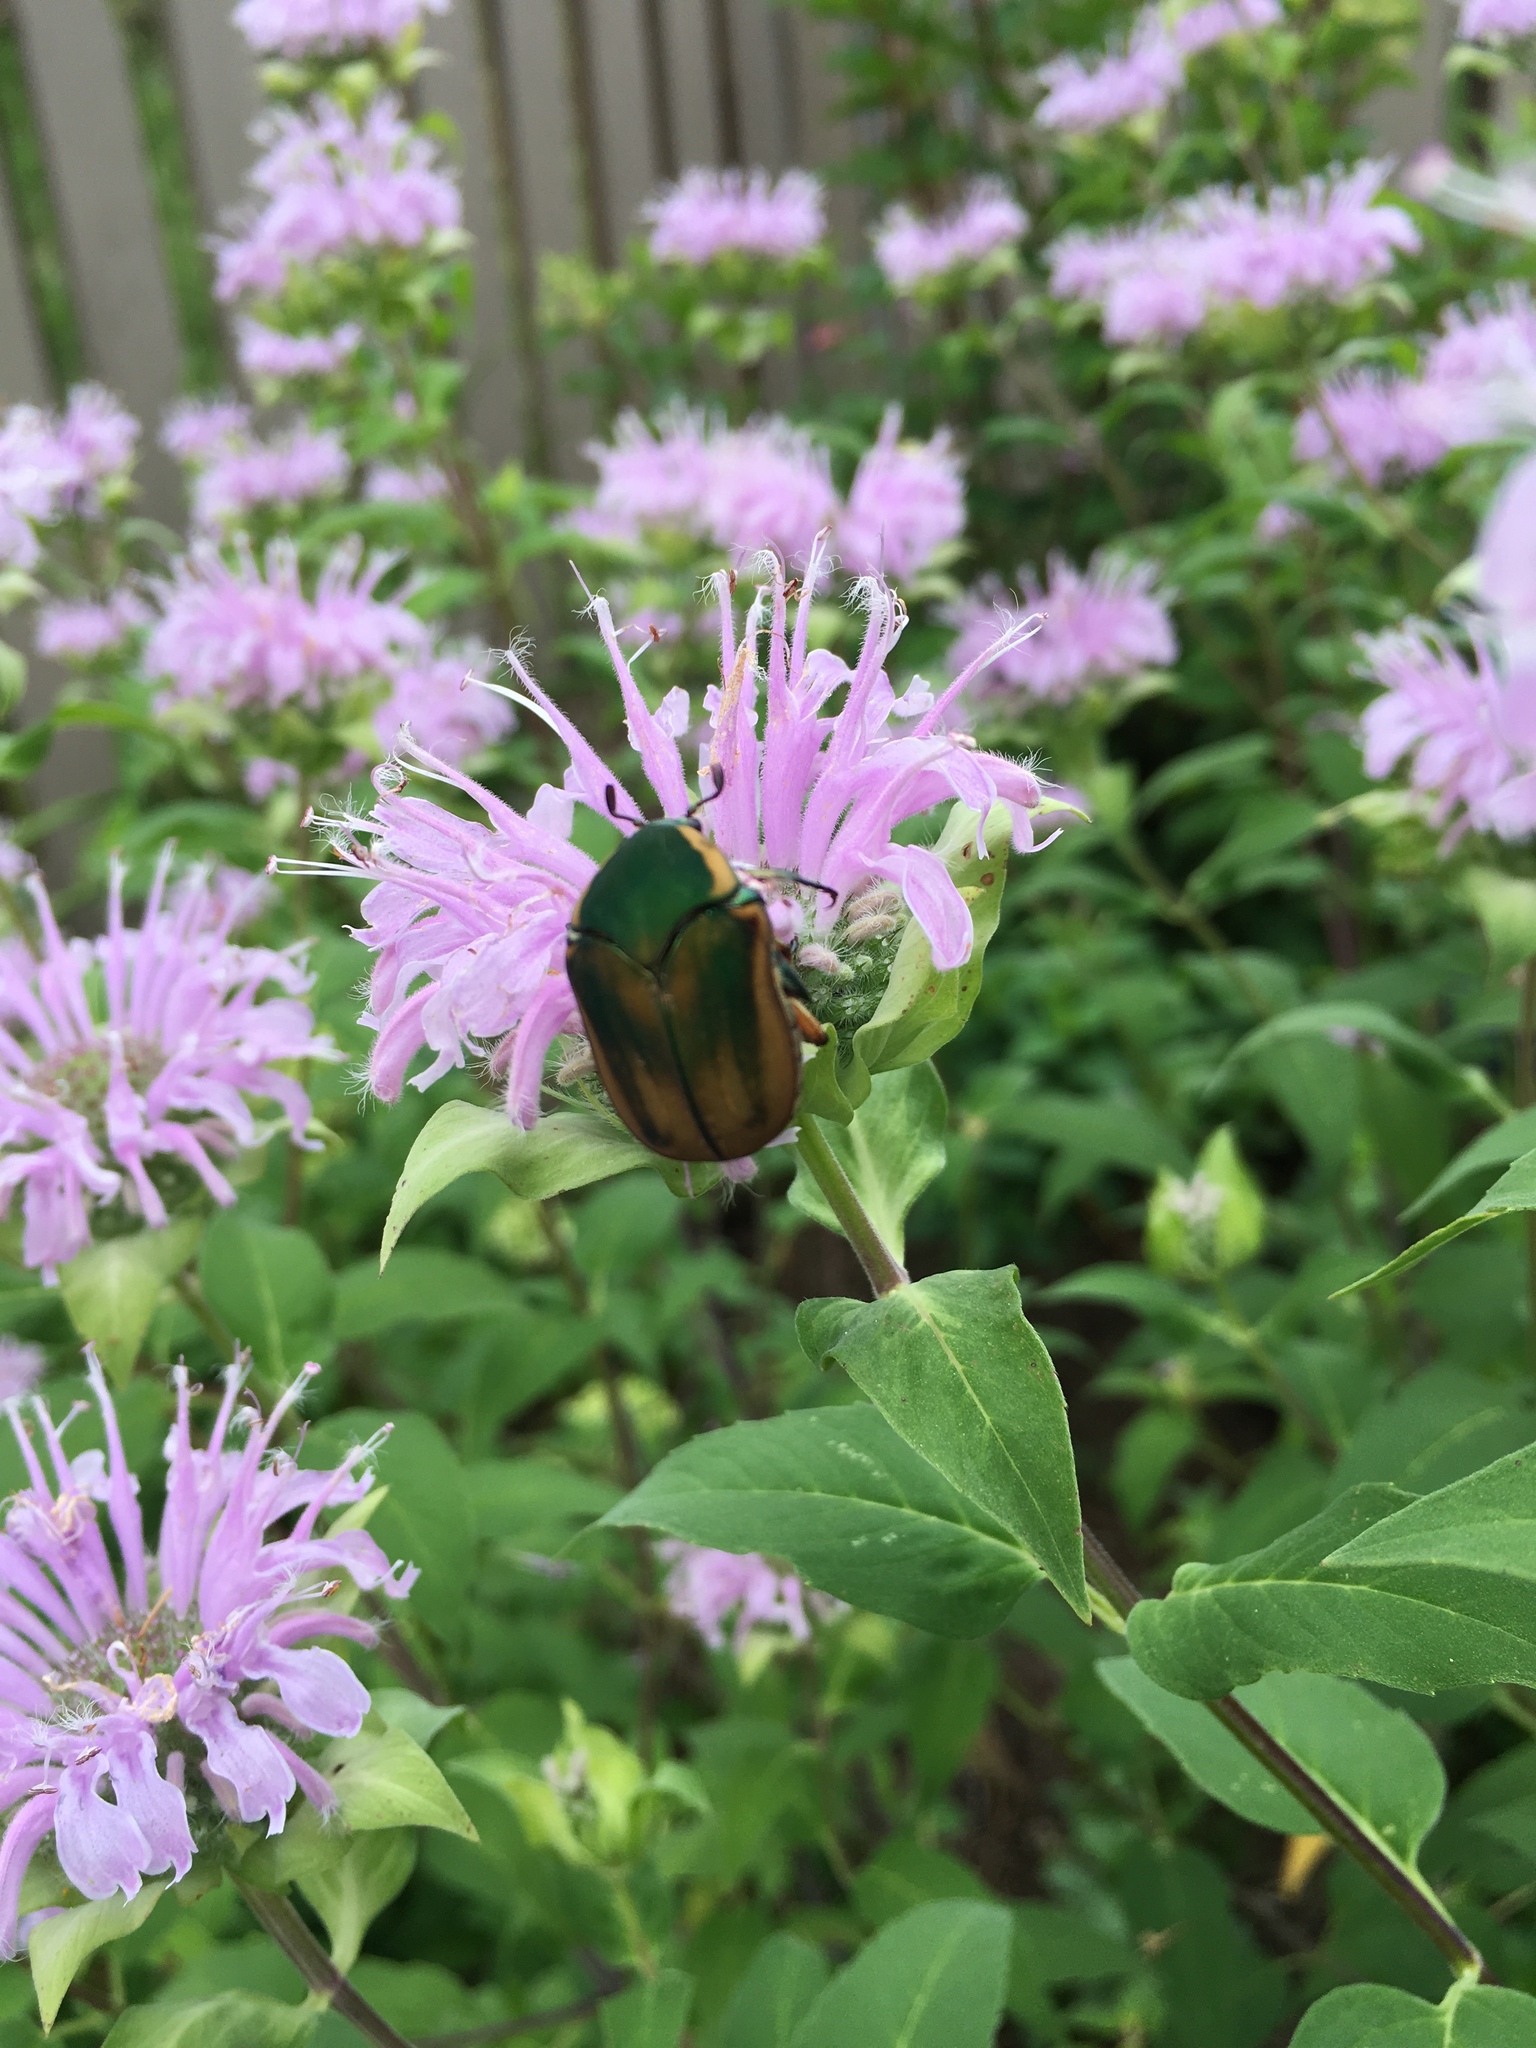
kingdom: Animalia
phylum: Arthropoda
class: Insecta
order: Coleoptera
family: Scarabaeidae
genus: Cotinis
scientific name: Cotinis nitida
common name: Common green june beetle
